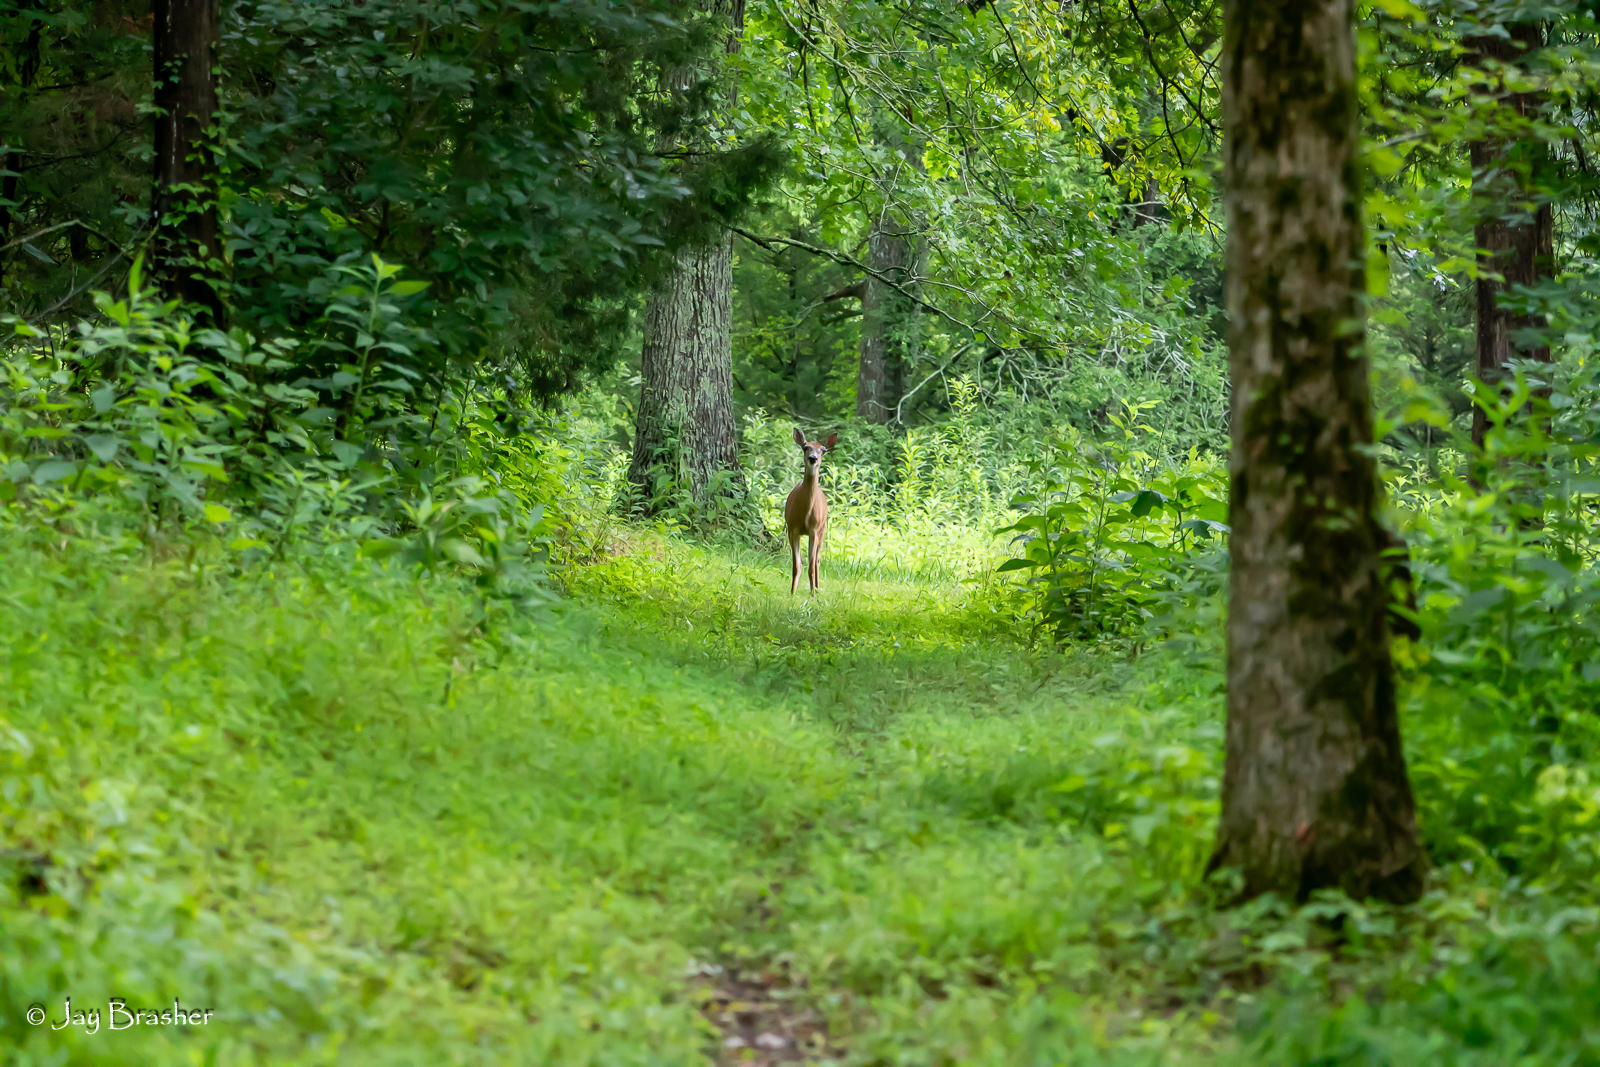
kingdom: Animalia
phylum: Chordata
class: Mammalia
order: Artiodactyla
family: Cervidae
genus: Odocoileus
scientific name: Odocoileus virginianus
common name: White-tailed deer
